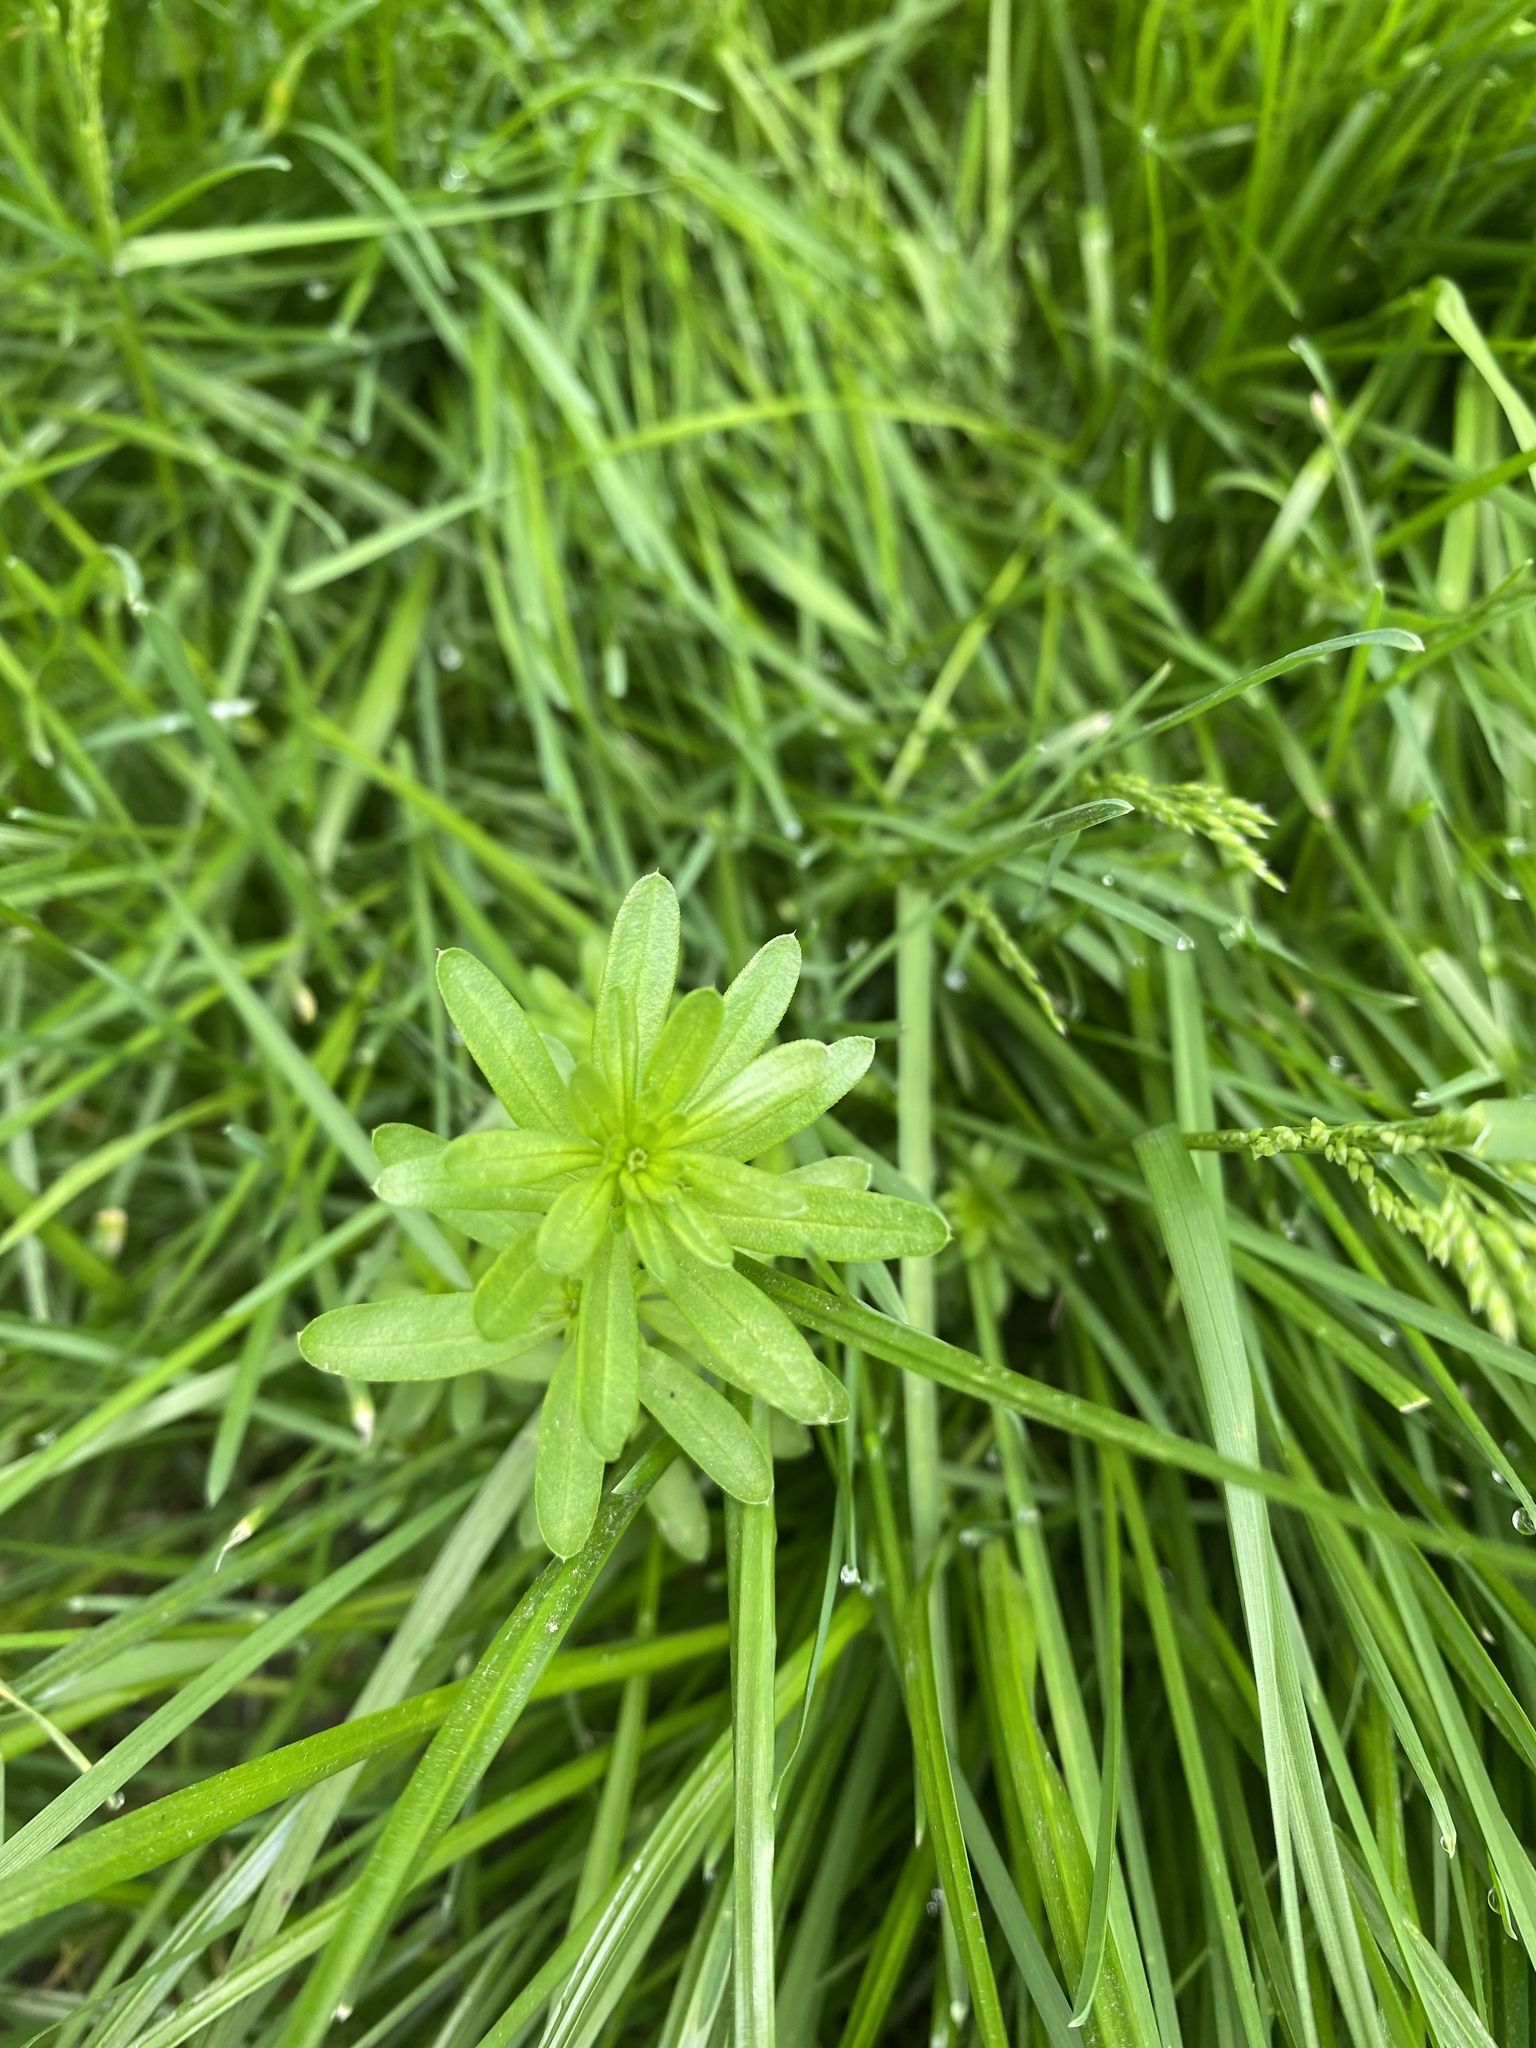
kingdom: Plantae
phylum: Tracheophyta
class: Magnoliopsida
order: Gentianales
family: Rubiaceae
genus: Galium
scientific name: Galium mollugo
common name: Hedge bedstraw
